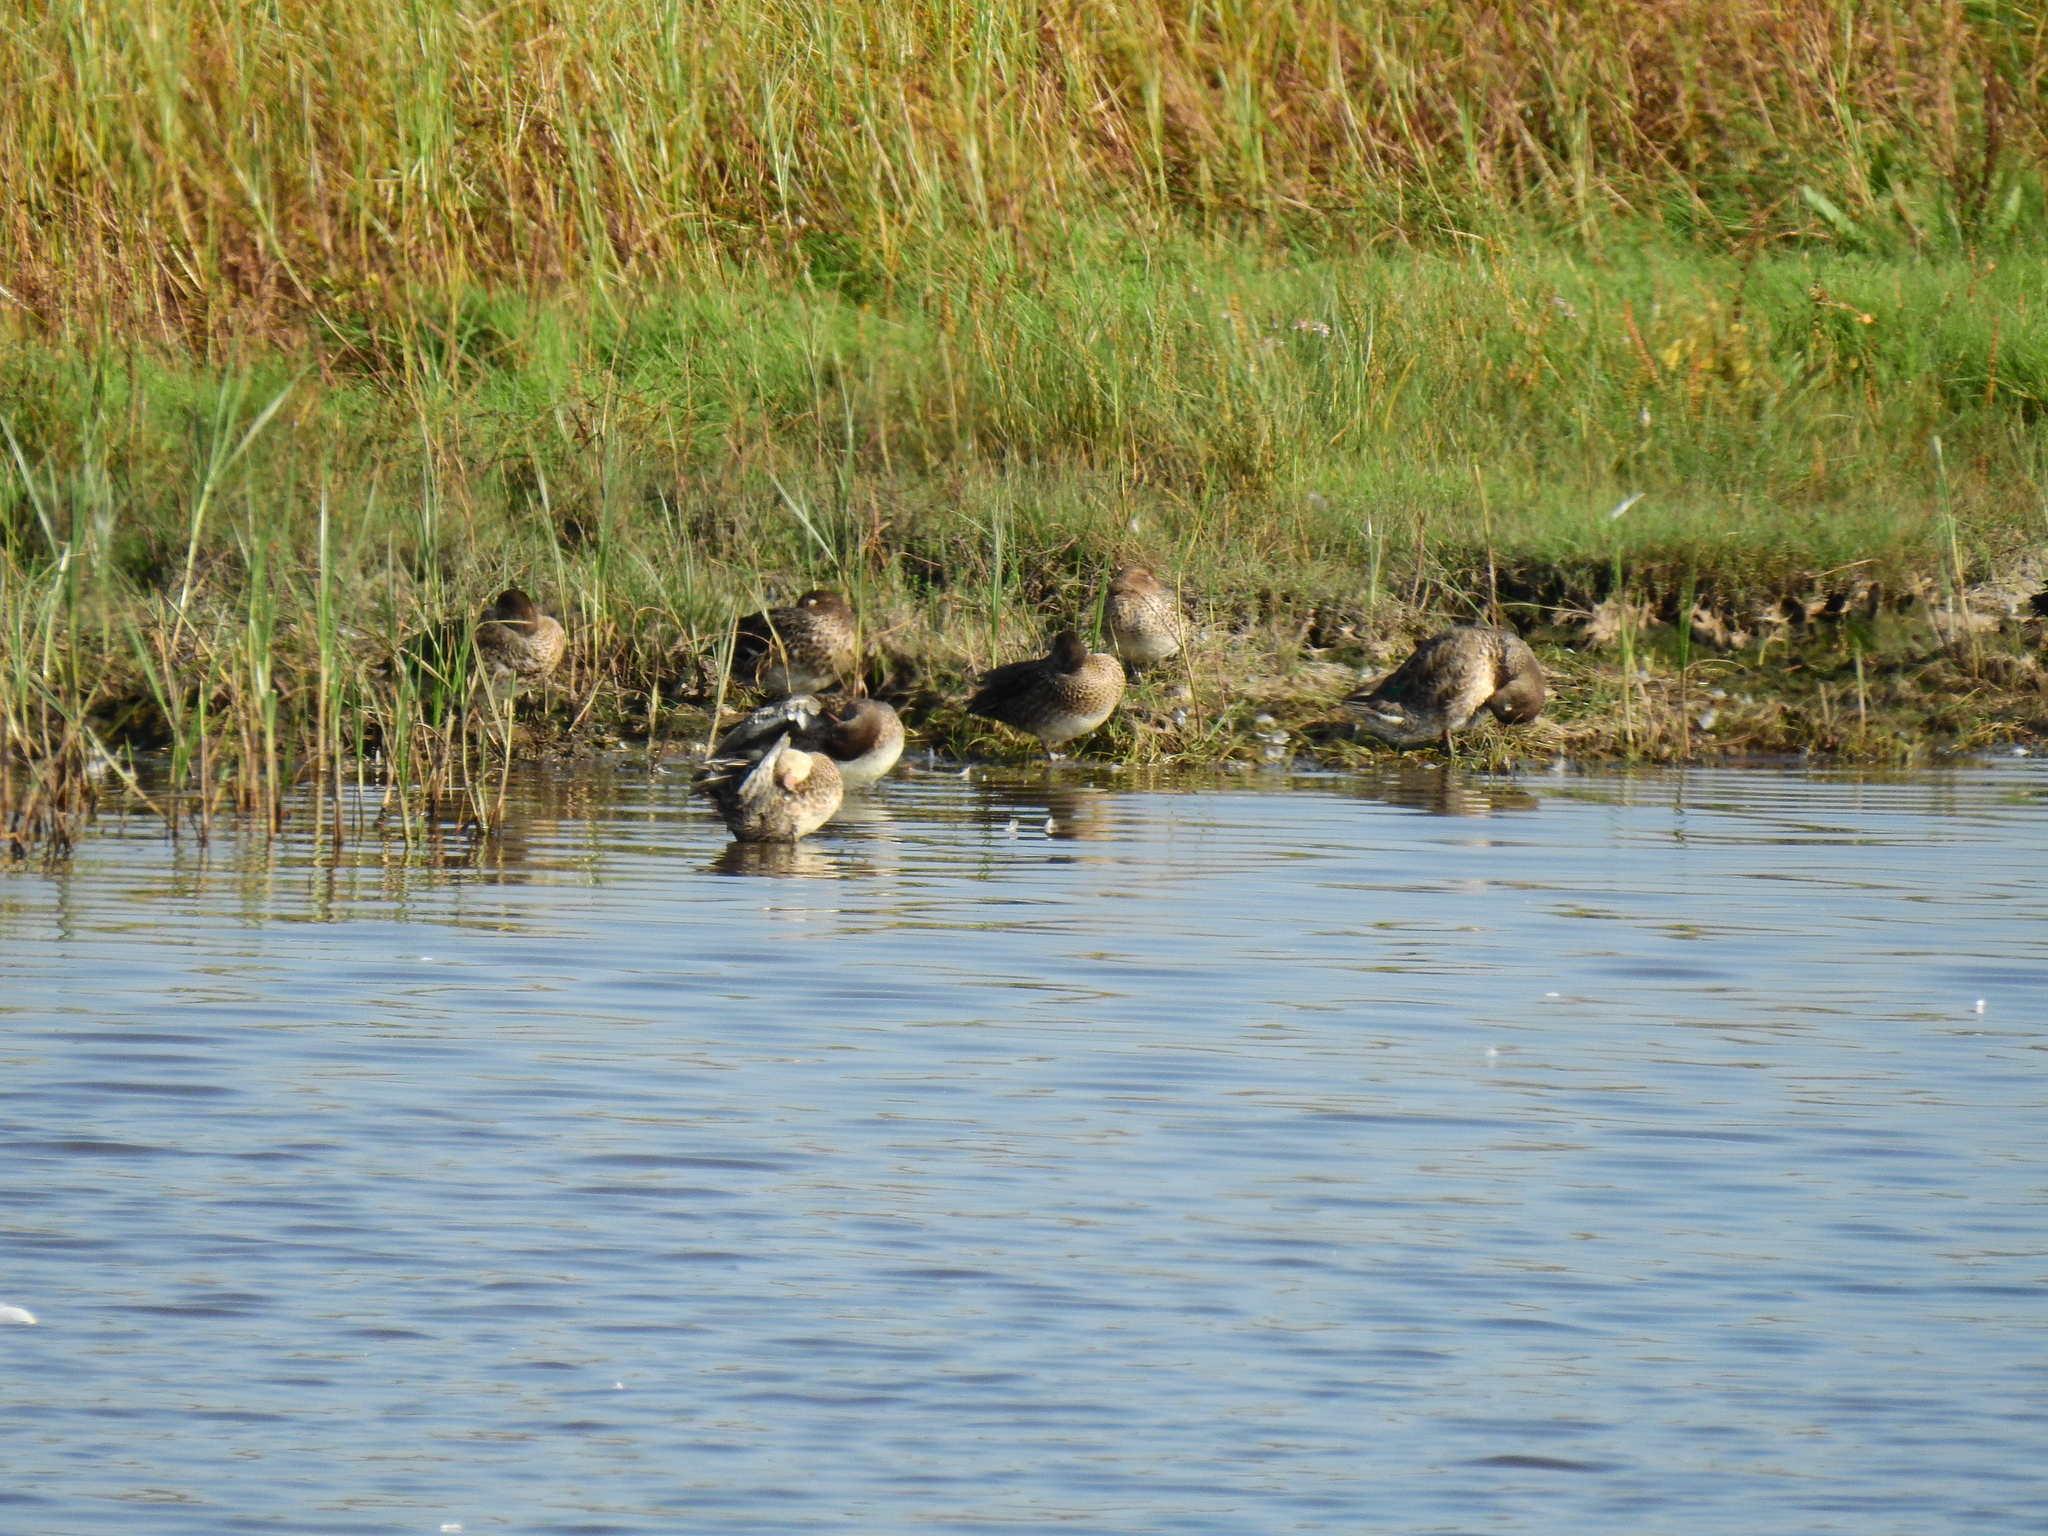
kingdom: Animalia
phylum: Chordata
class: Aves
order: Anseriformes
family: Anatidae
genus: Anas
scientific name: Anas crecca
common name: Eurasian teal
